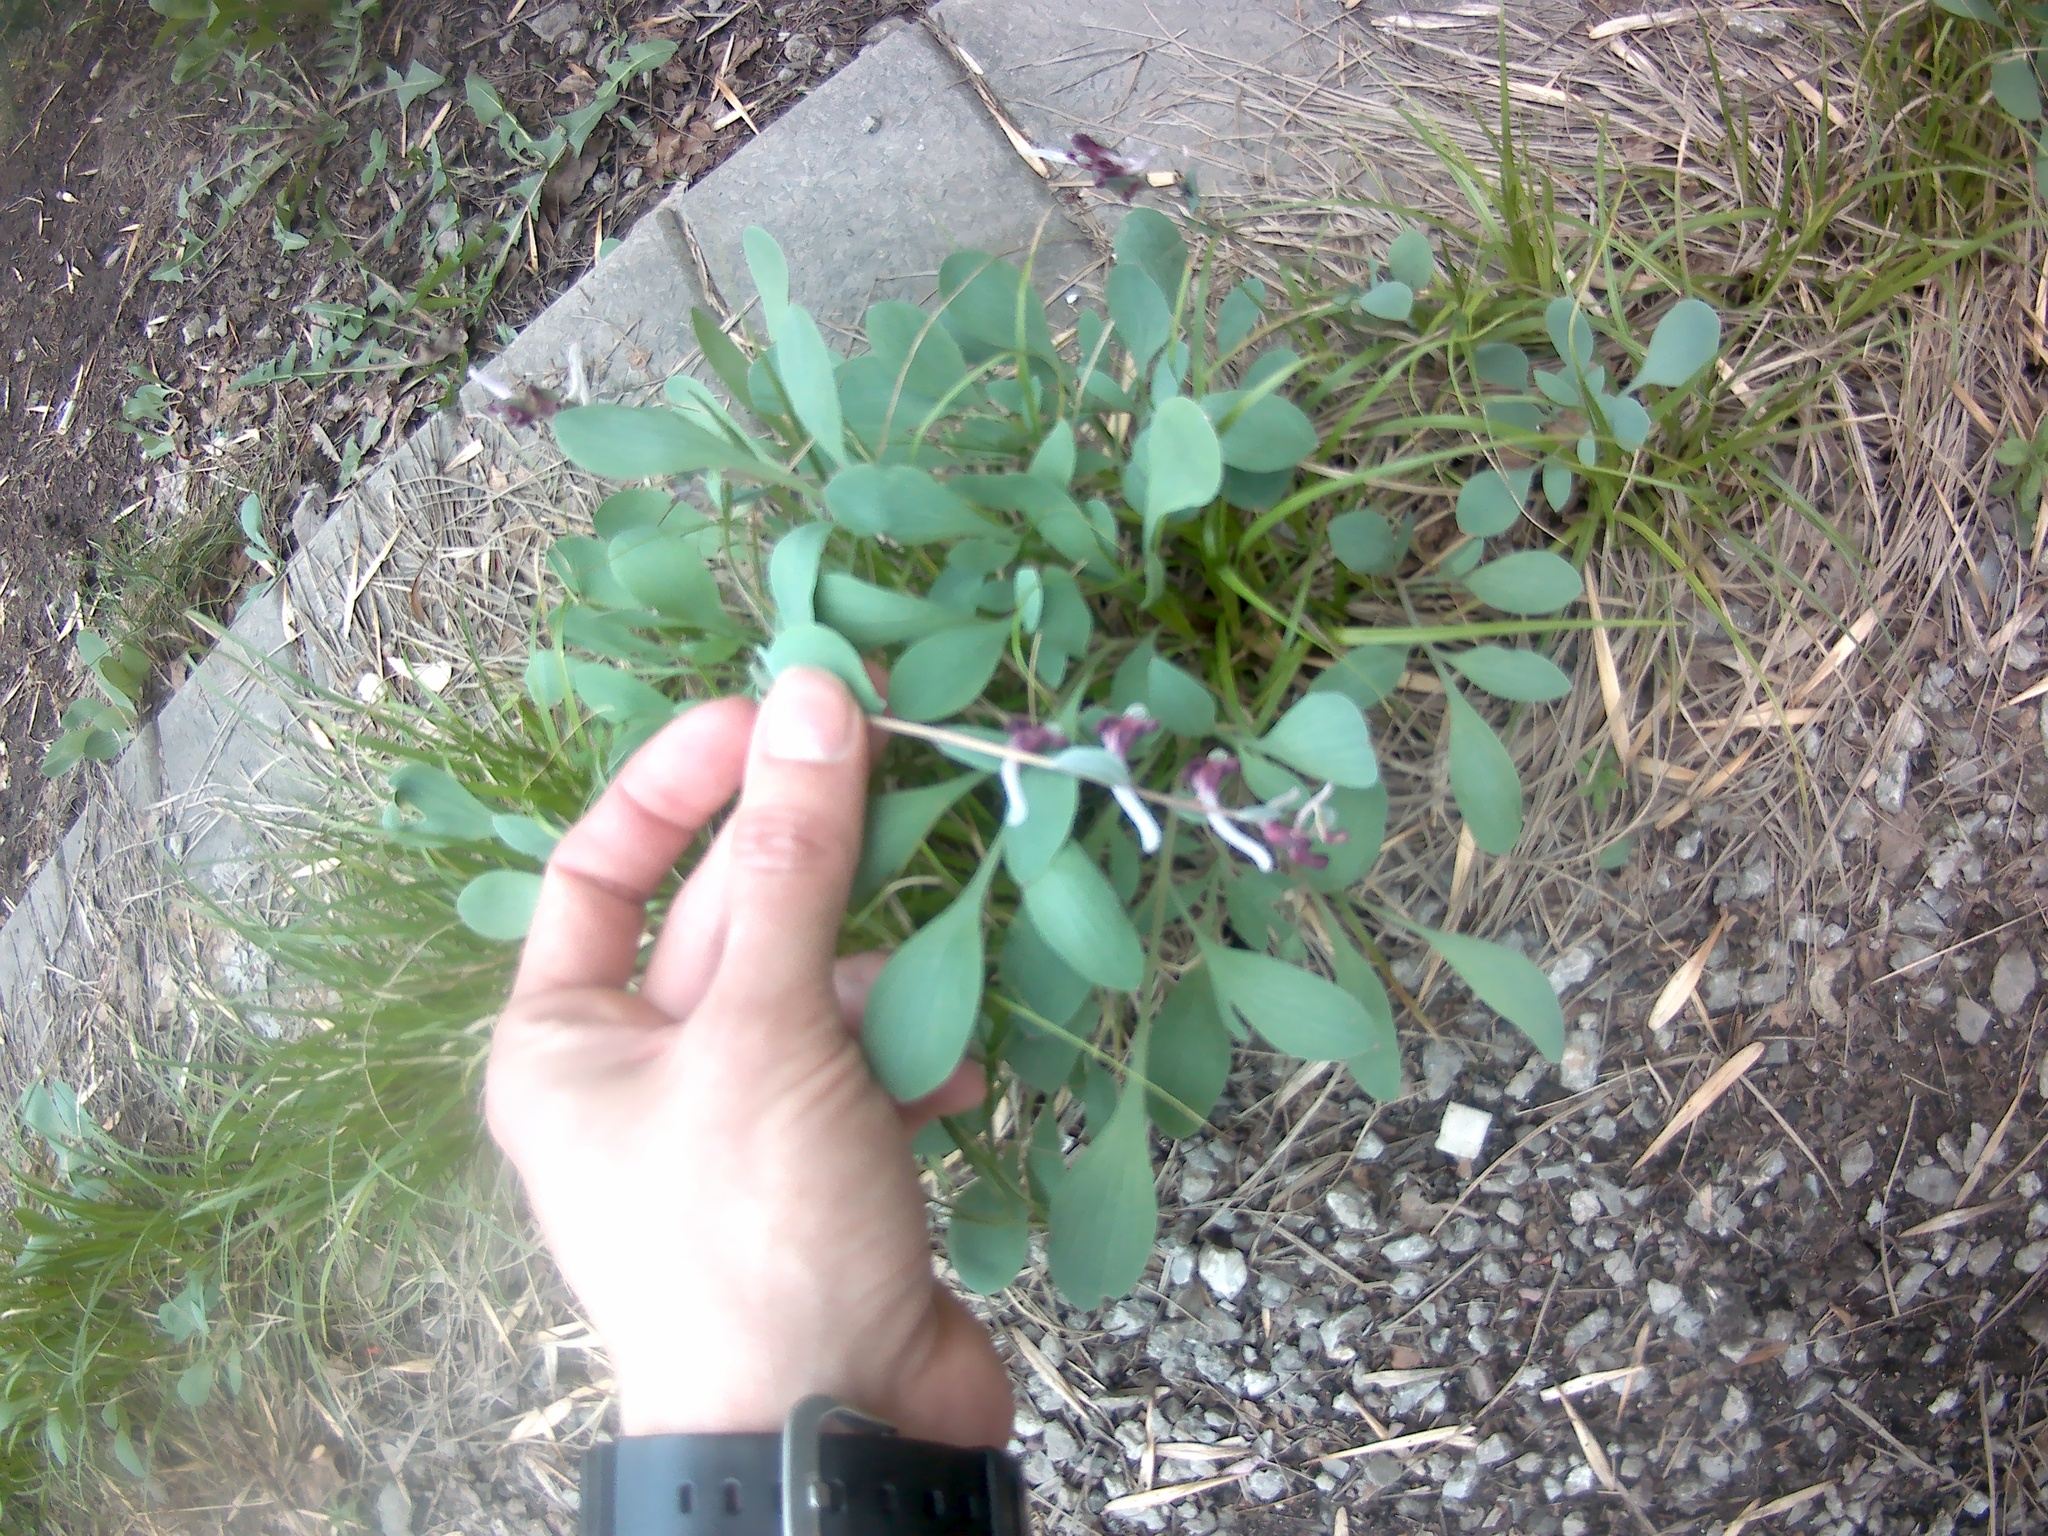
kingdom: Plantae
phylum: Tracheophyta
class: Magnoliopsida
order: Ranunculales
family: Papaveraceae
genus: Corydalis
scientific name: Corydalis ledebouriana
